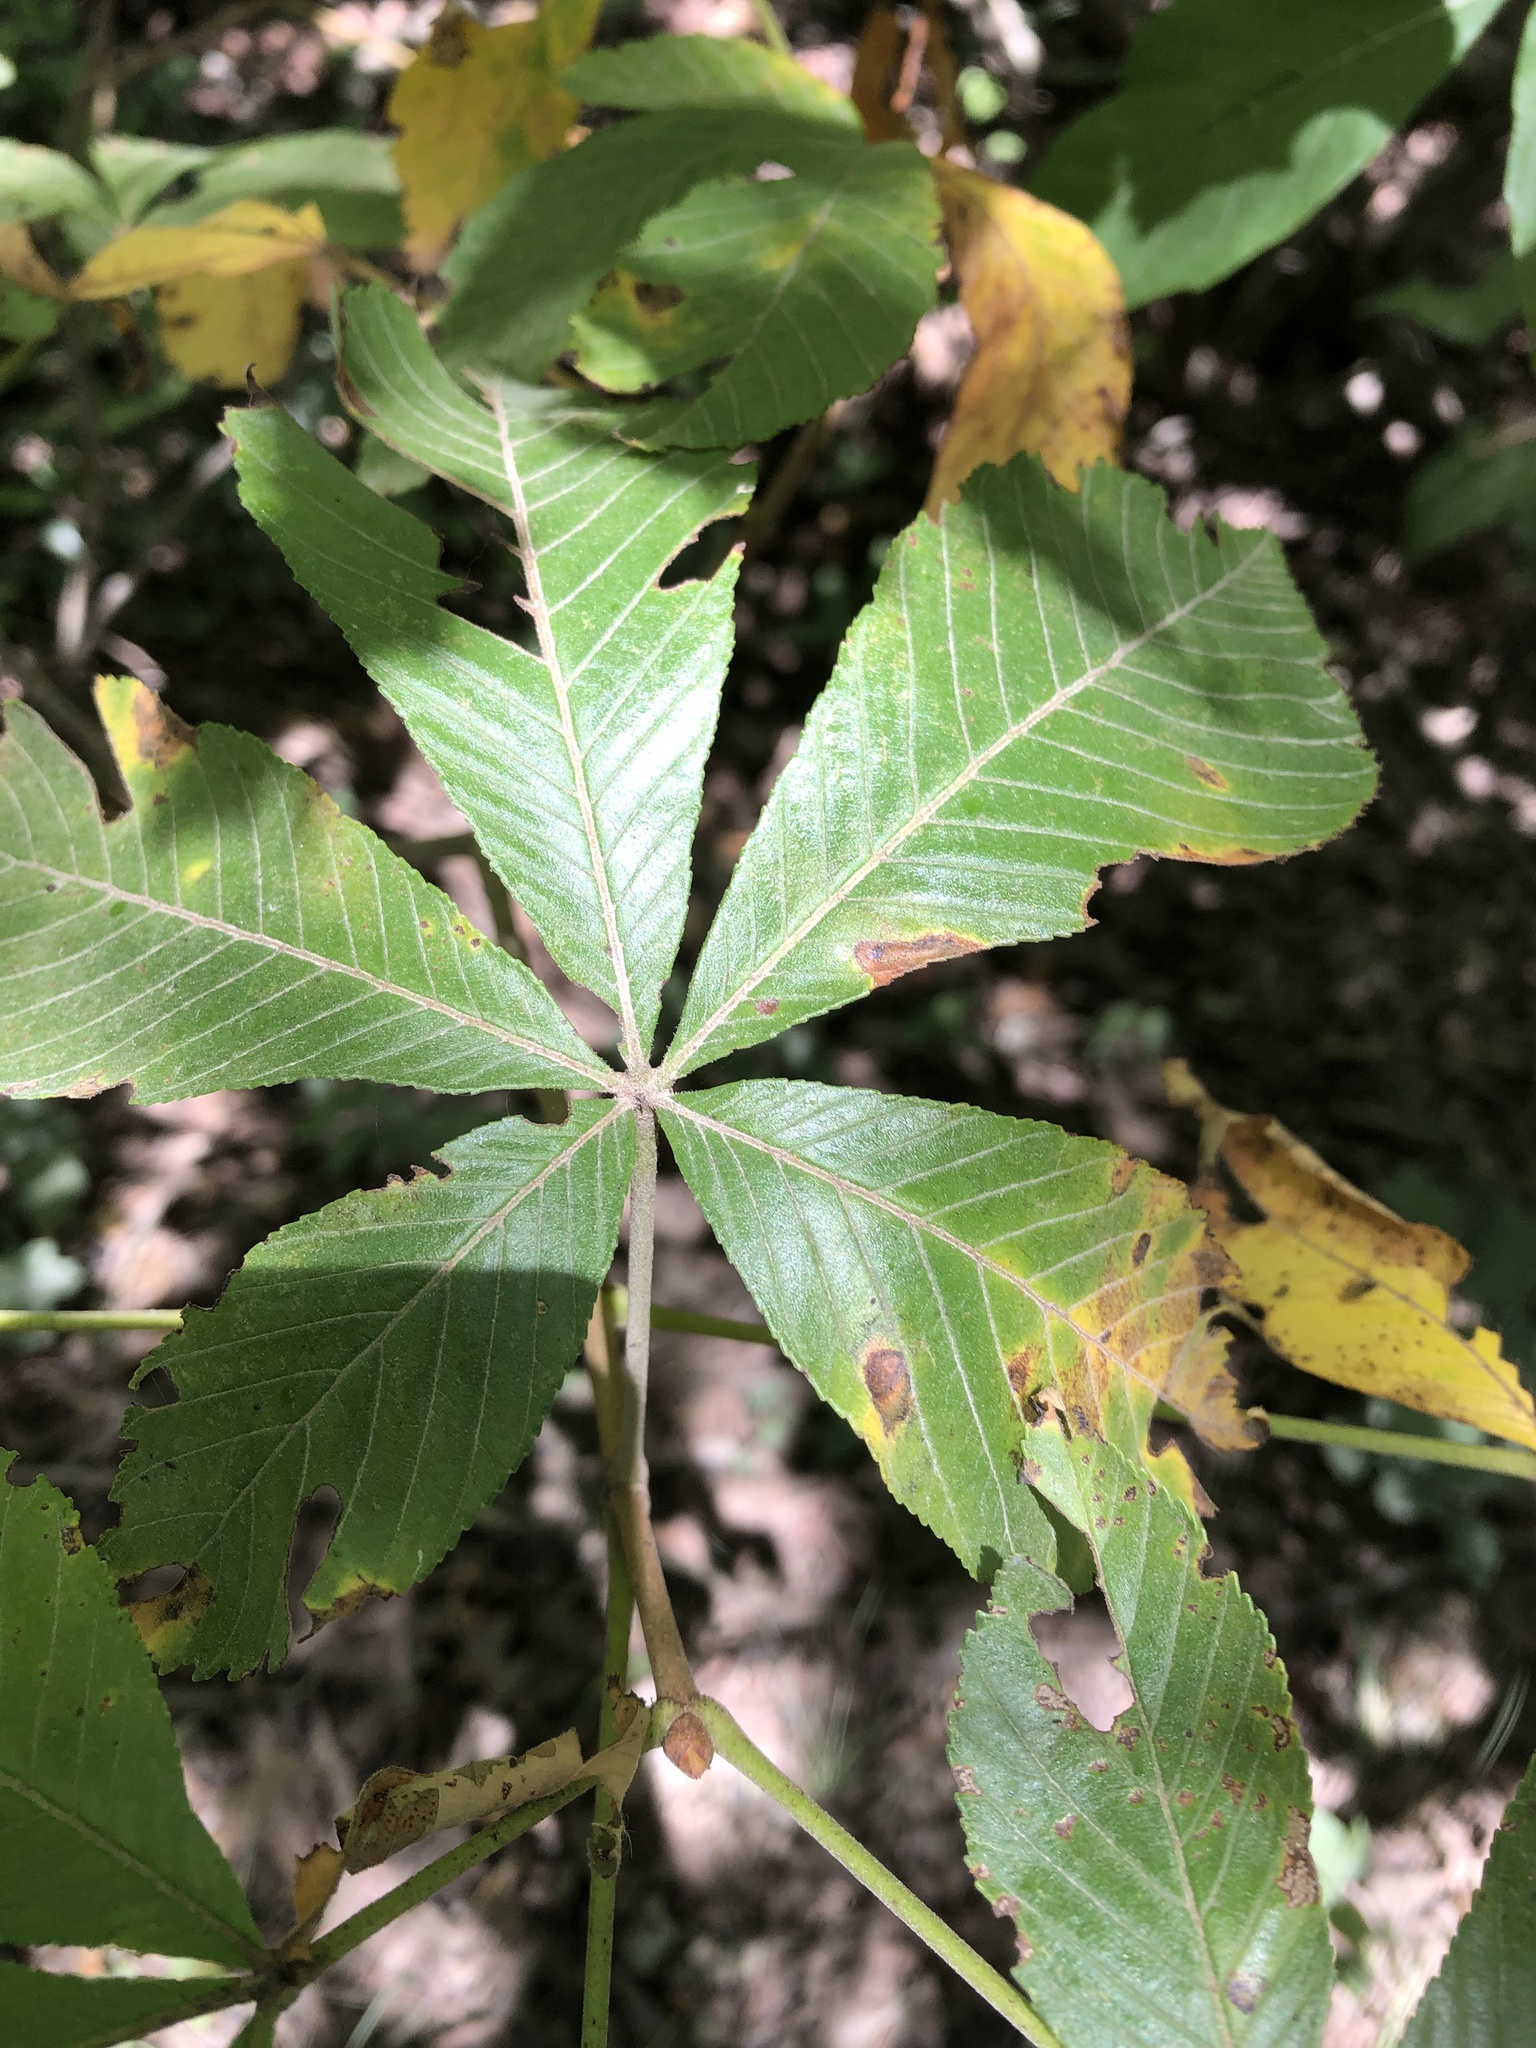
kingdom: Plantae
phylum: Tracheophyta
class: Magnoliopsida
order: Sapindales
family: Sapindaceae
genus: Aesculus
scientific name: Aesculus pavia
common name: Red buckeye
